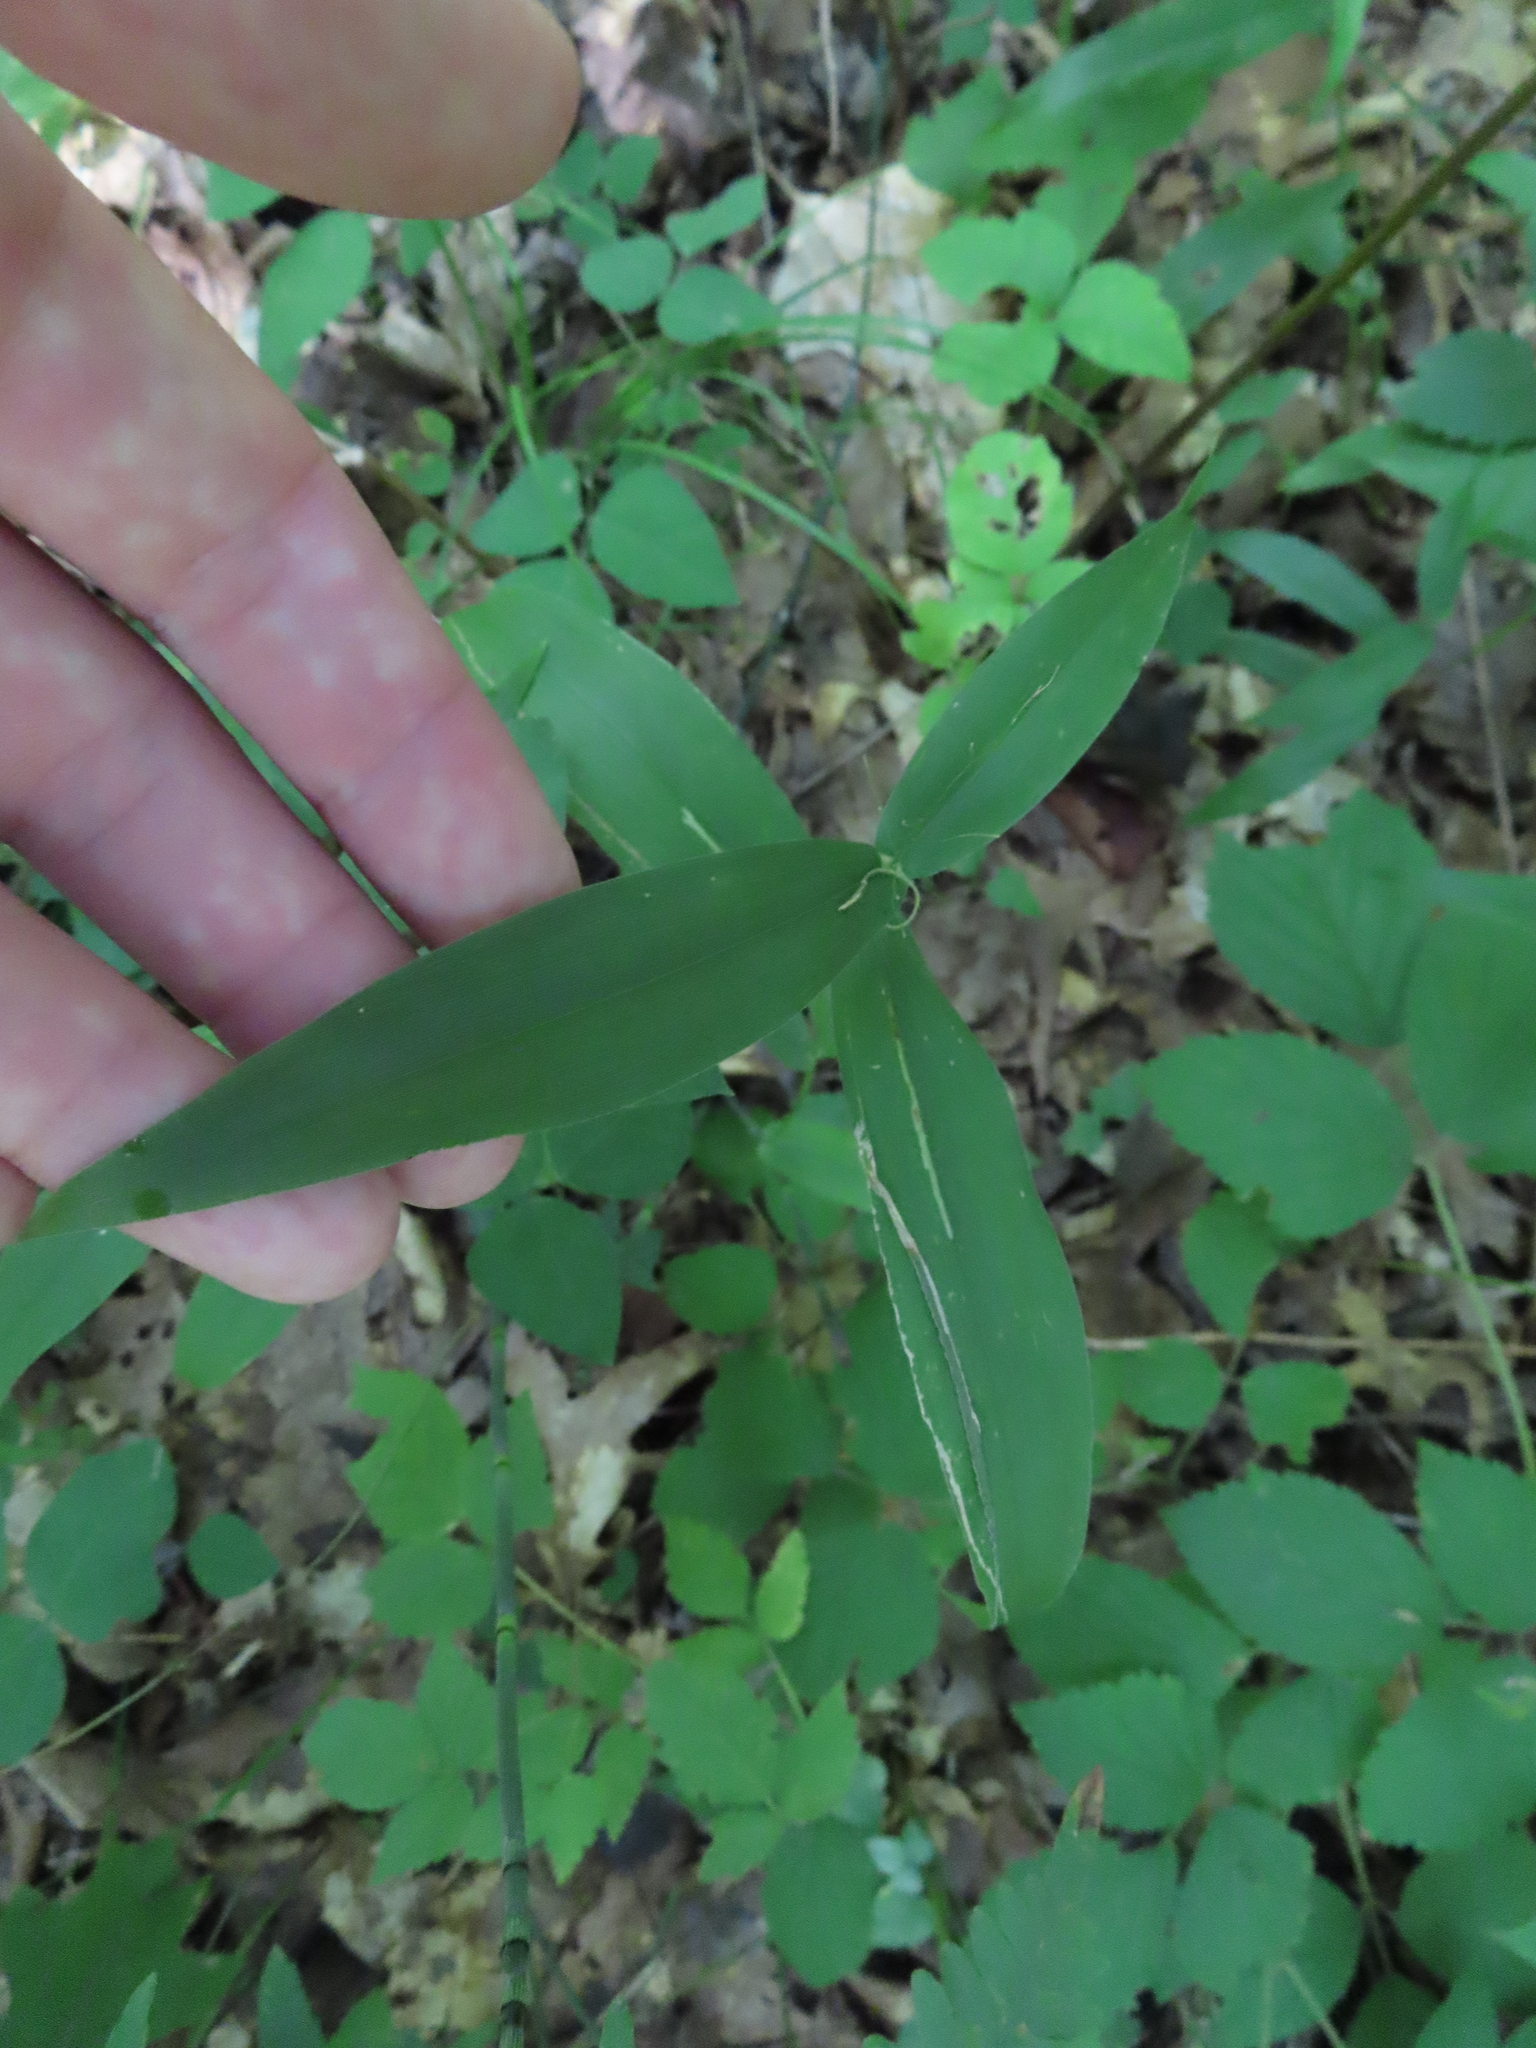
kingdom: Plantae
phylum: Tracheophyta
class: Liliopsida
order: Poales
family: Poaceae
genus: Dichanthelium
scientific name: Dichanthelium latifolium
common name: Broad-leaved panicgrass
